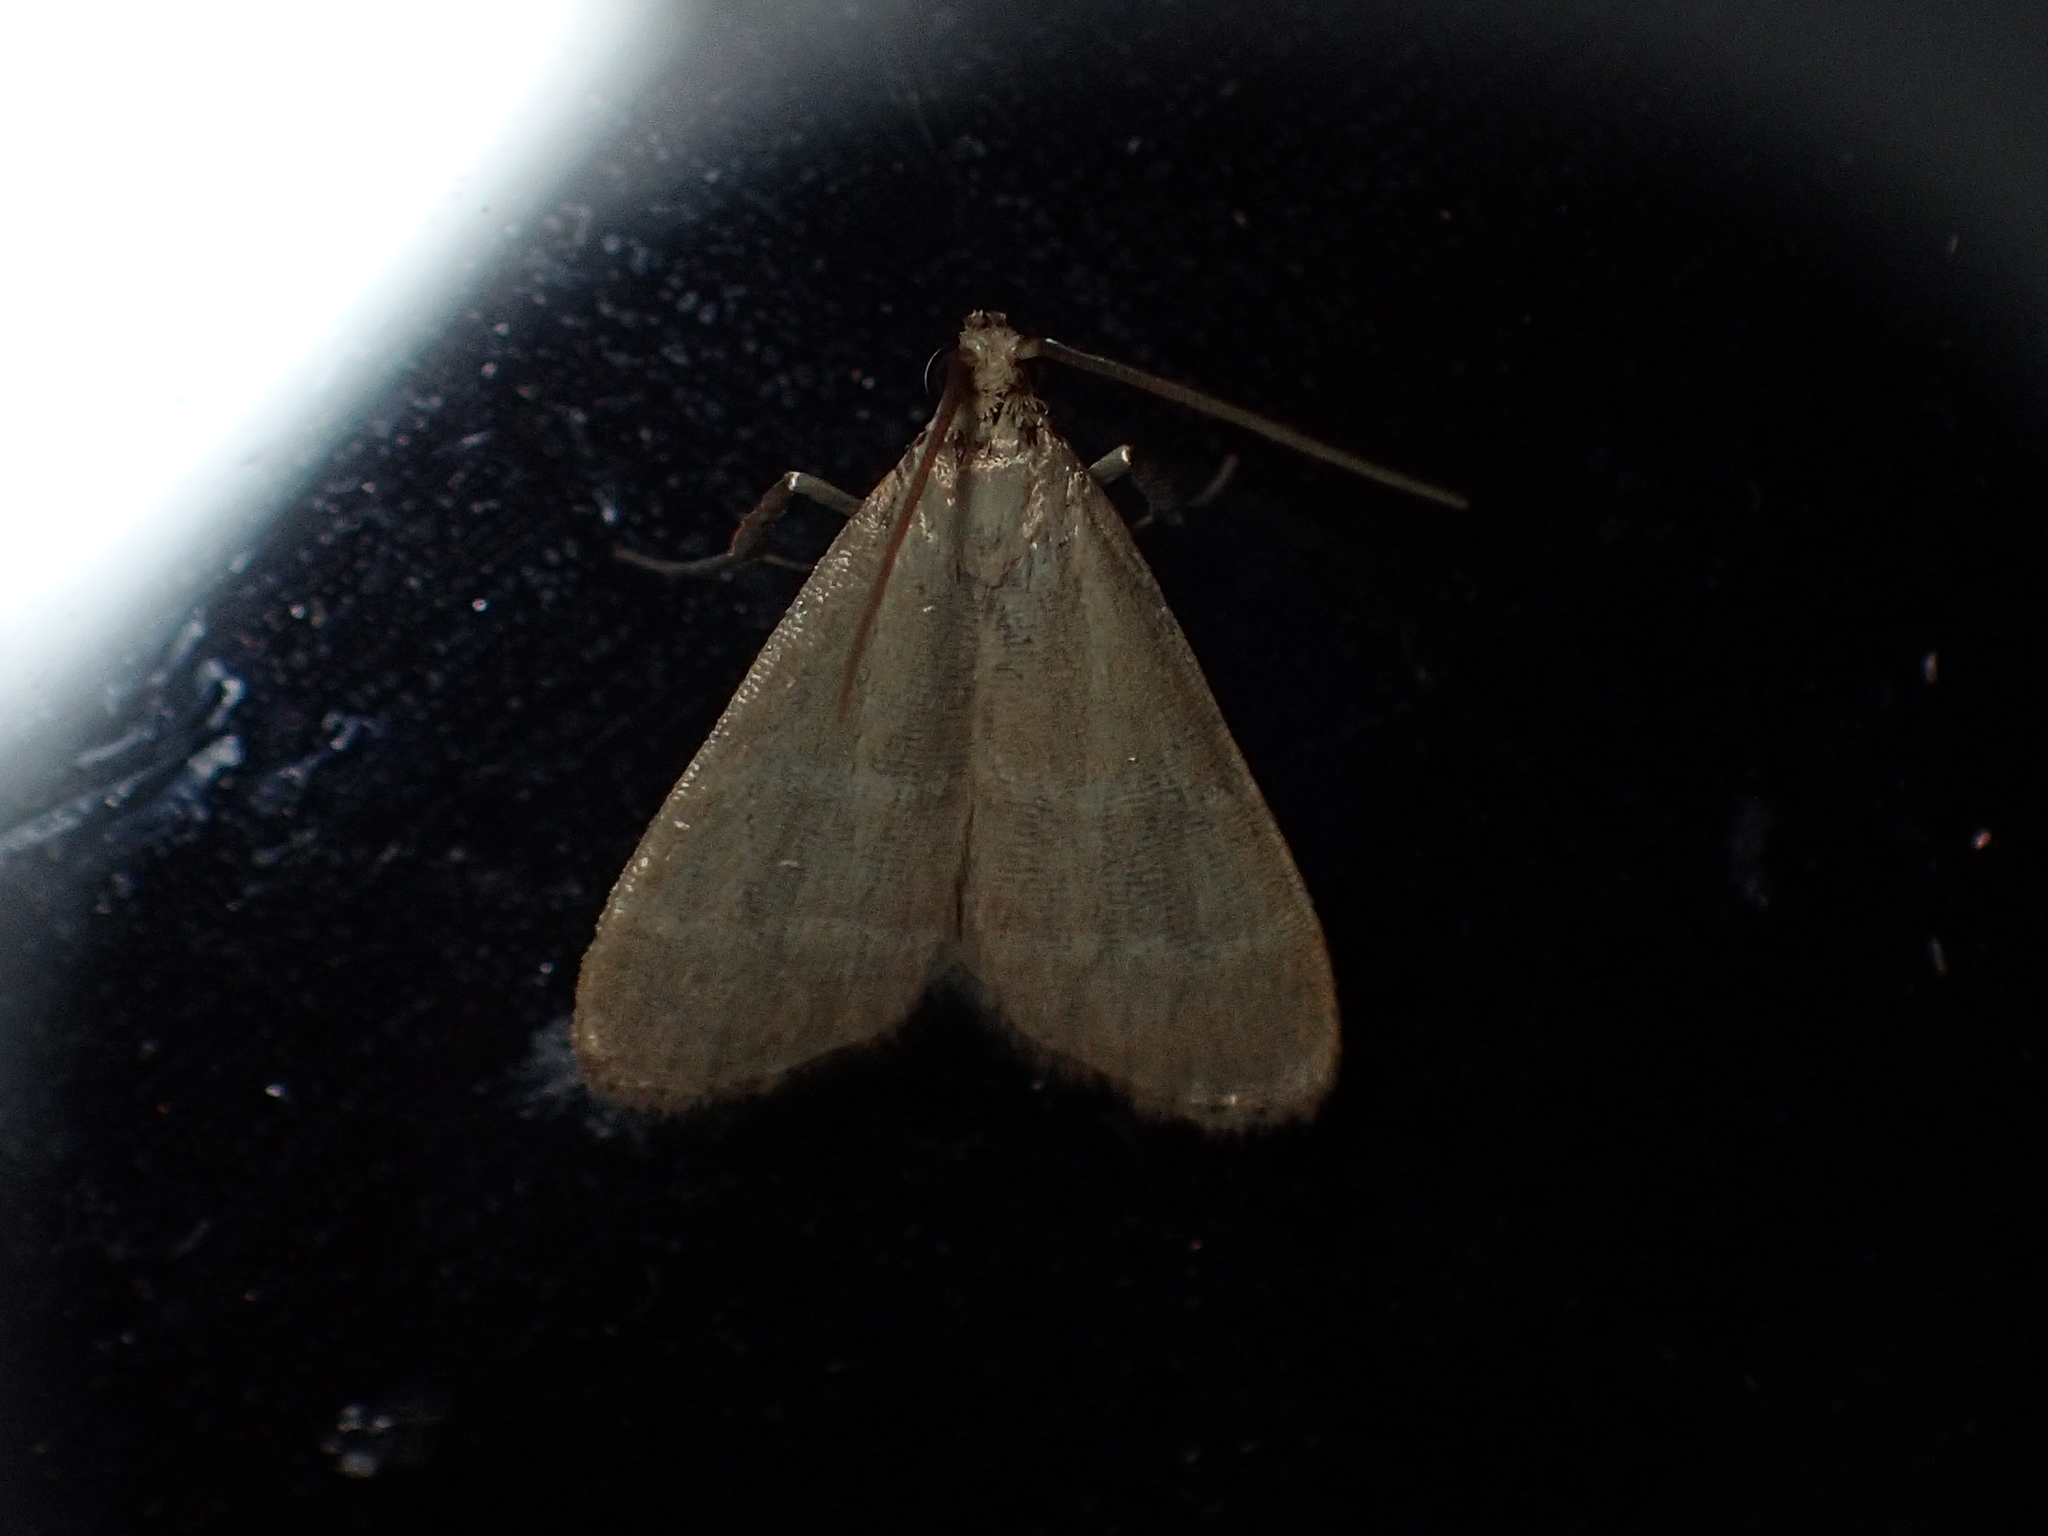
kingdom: Animalia
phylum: Arthropoda
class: Insecta
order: Lepidoptera
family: Pyralidae
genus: Arta
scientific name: Arta olivalis
